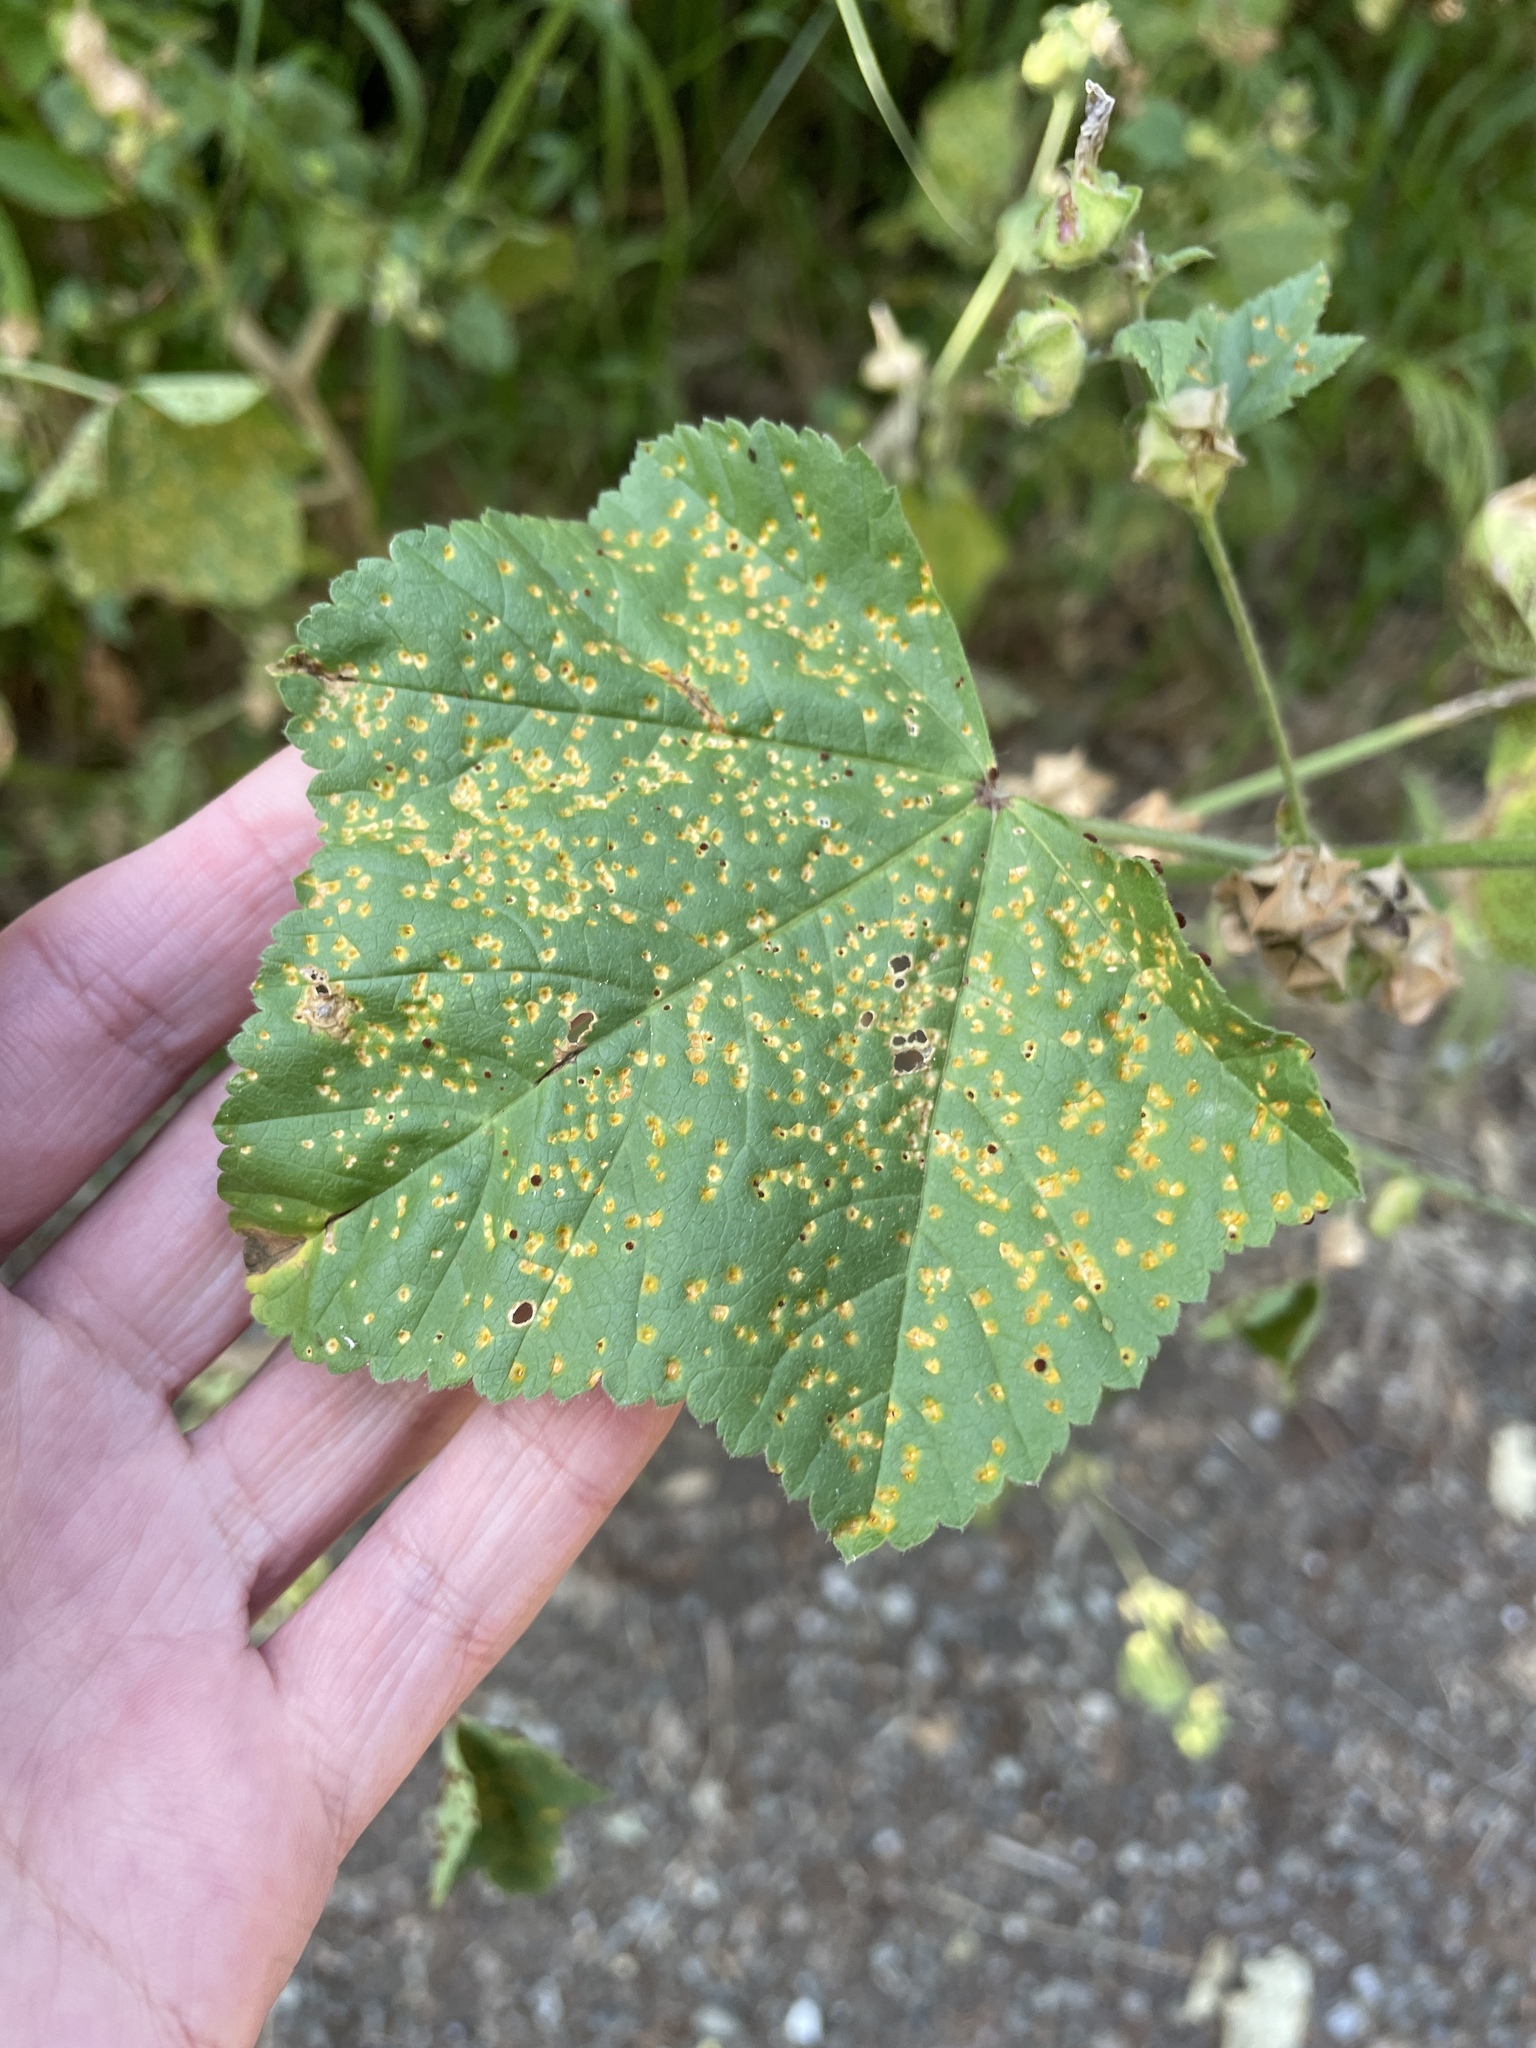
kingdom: Fungi
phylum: Basidiomycota
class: Pucciniomycetes
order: Pucciniales
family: Pucciniaceae
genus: Puccinia
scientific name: Puccinia malvacearum
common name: Hollyhock rust
